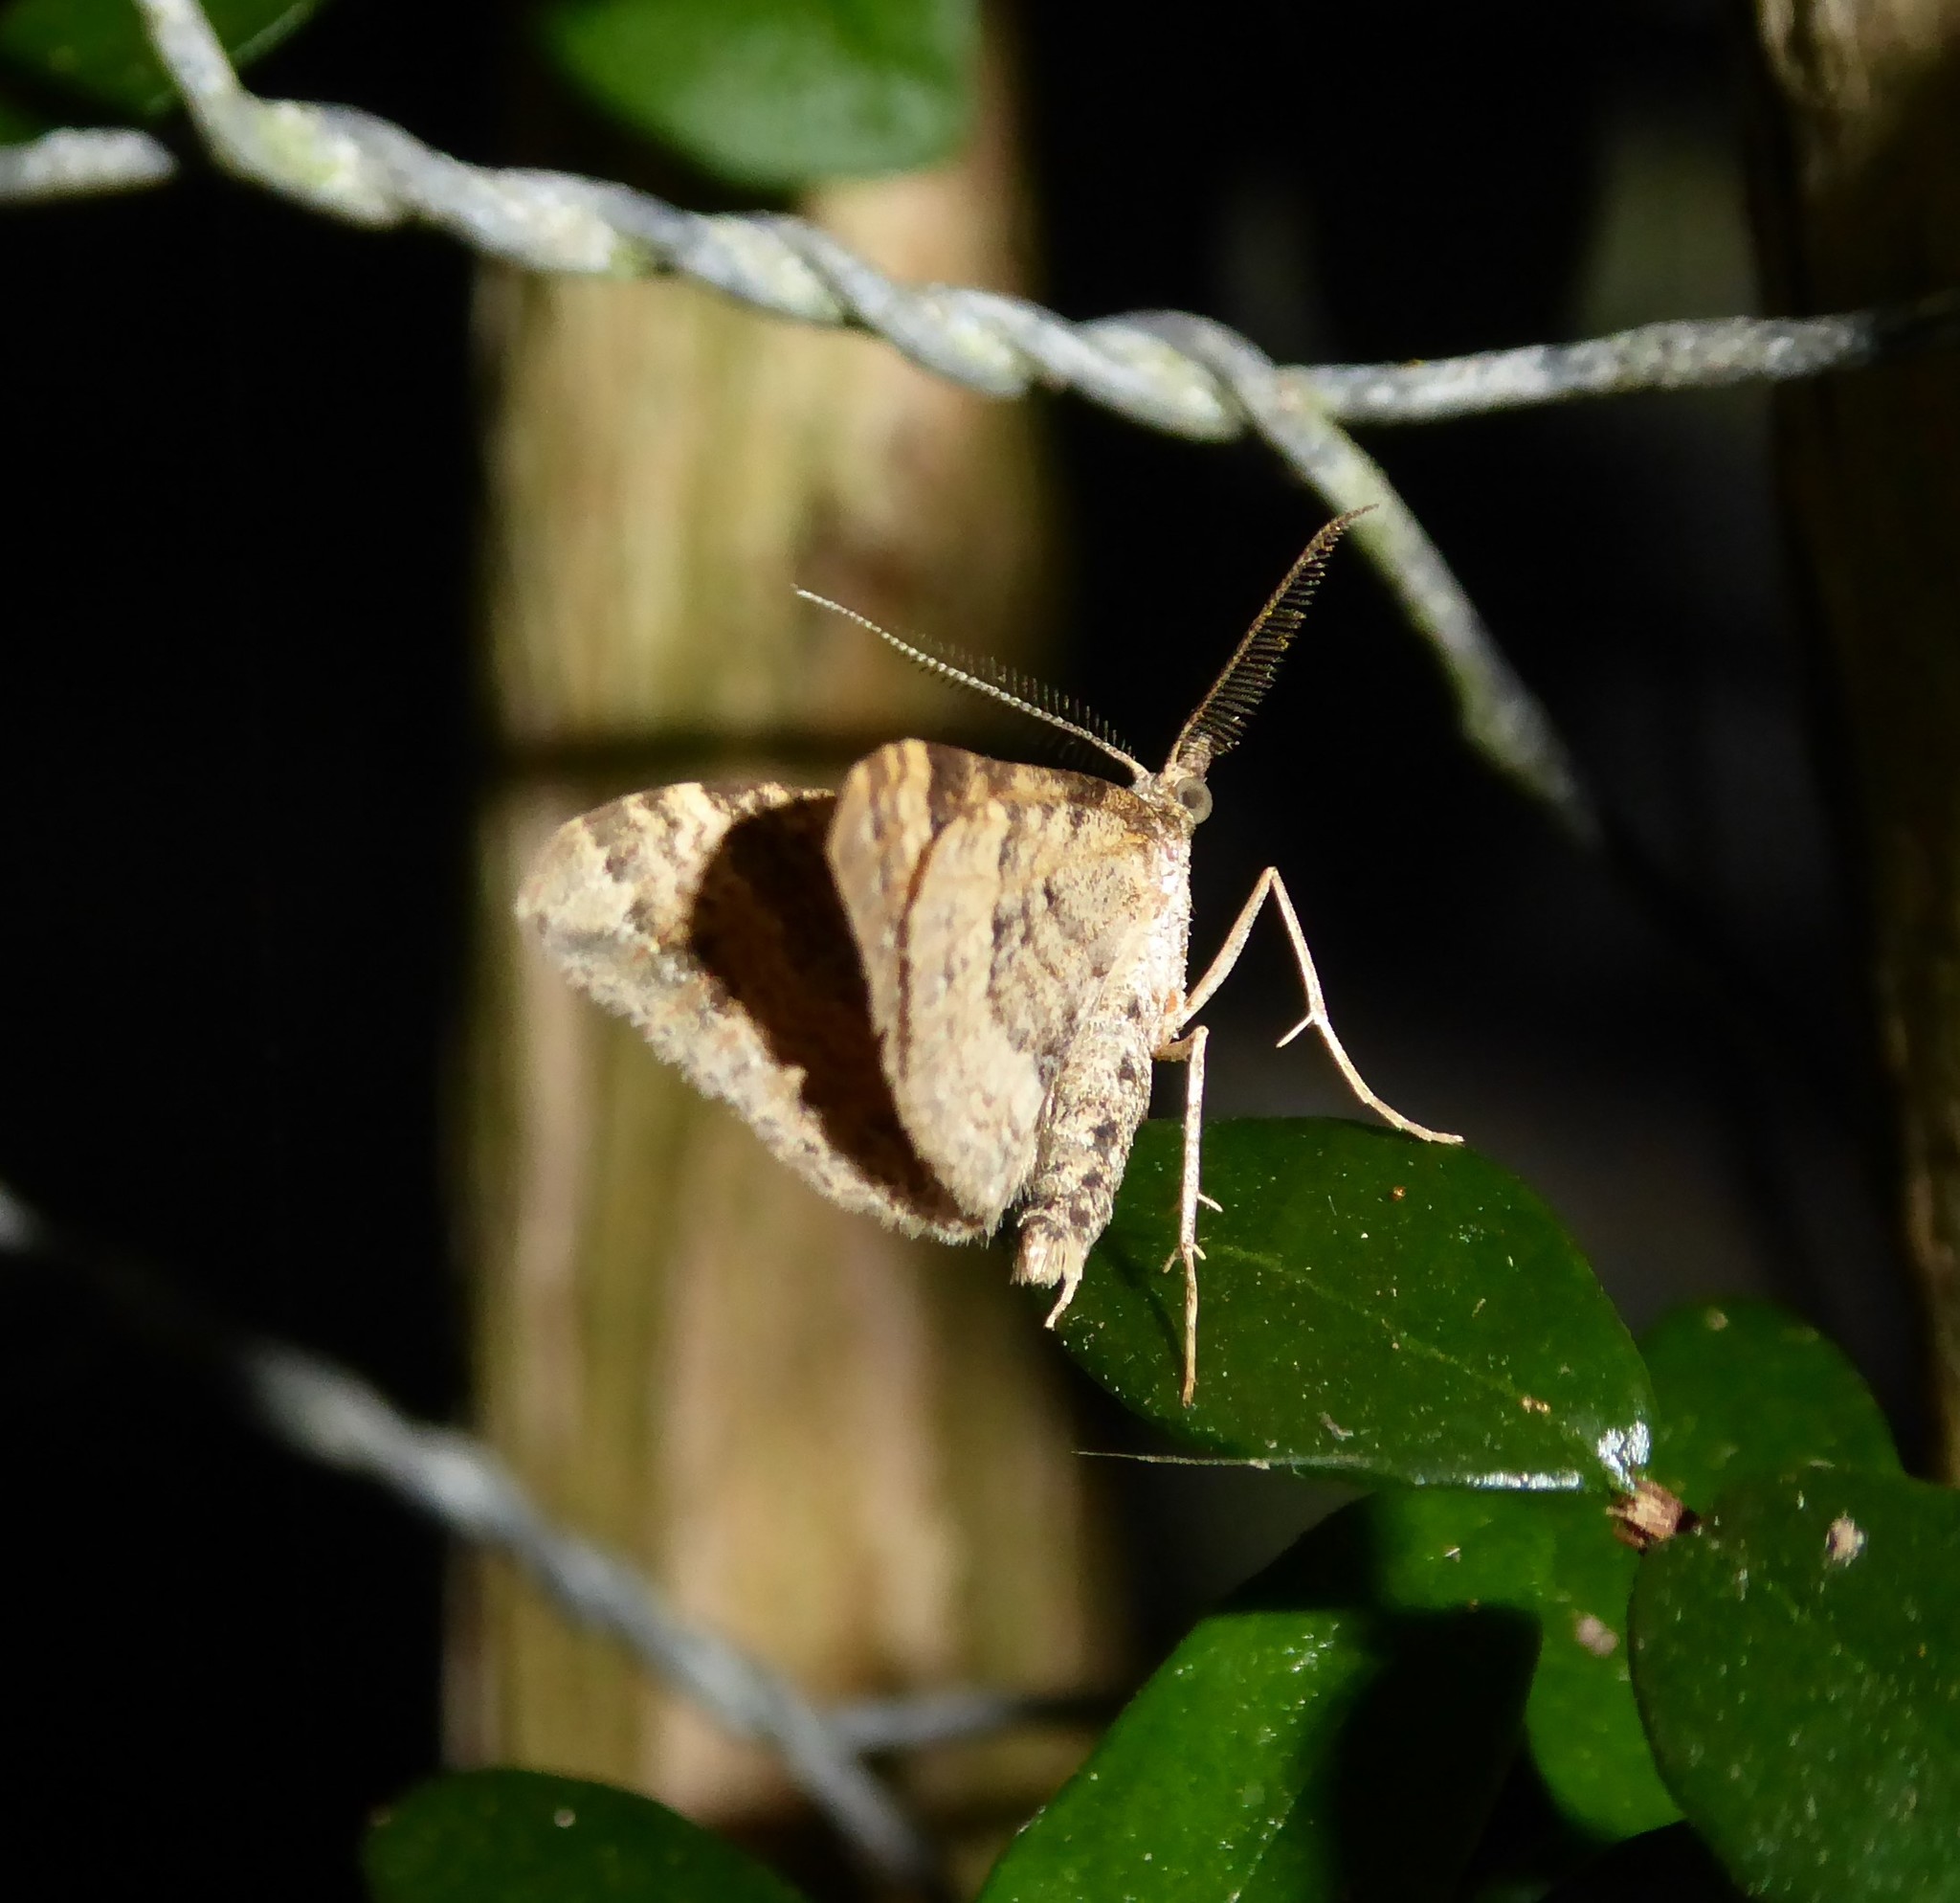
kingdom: Animalia
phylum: Arthropoda
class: Insecta
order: Lepidoptera
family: Geometridae
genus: Homodotis
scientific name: Homodotis falcata
